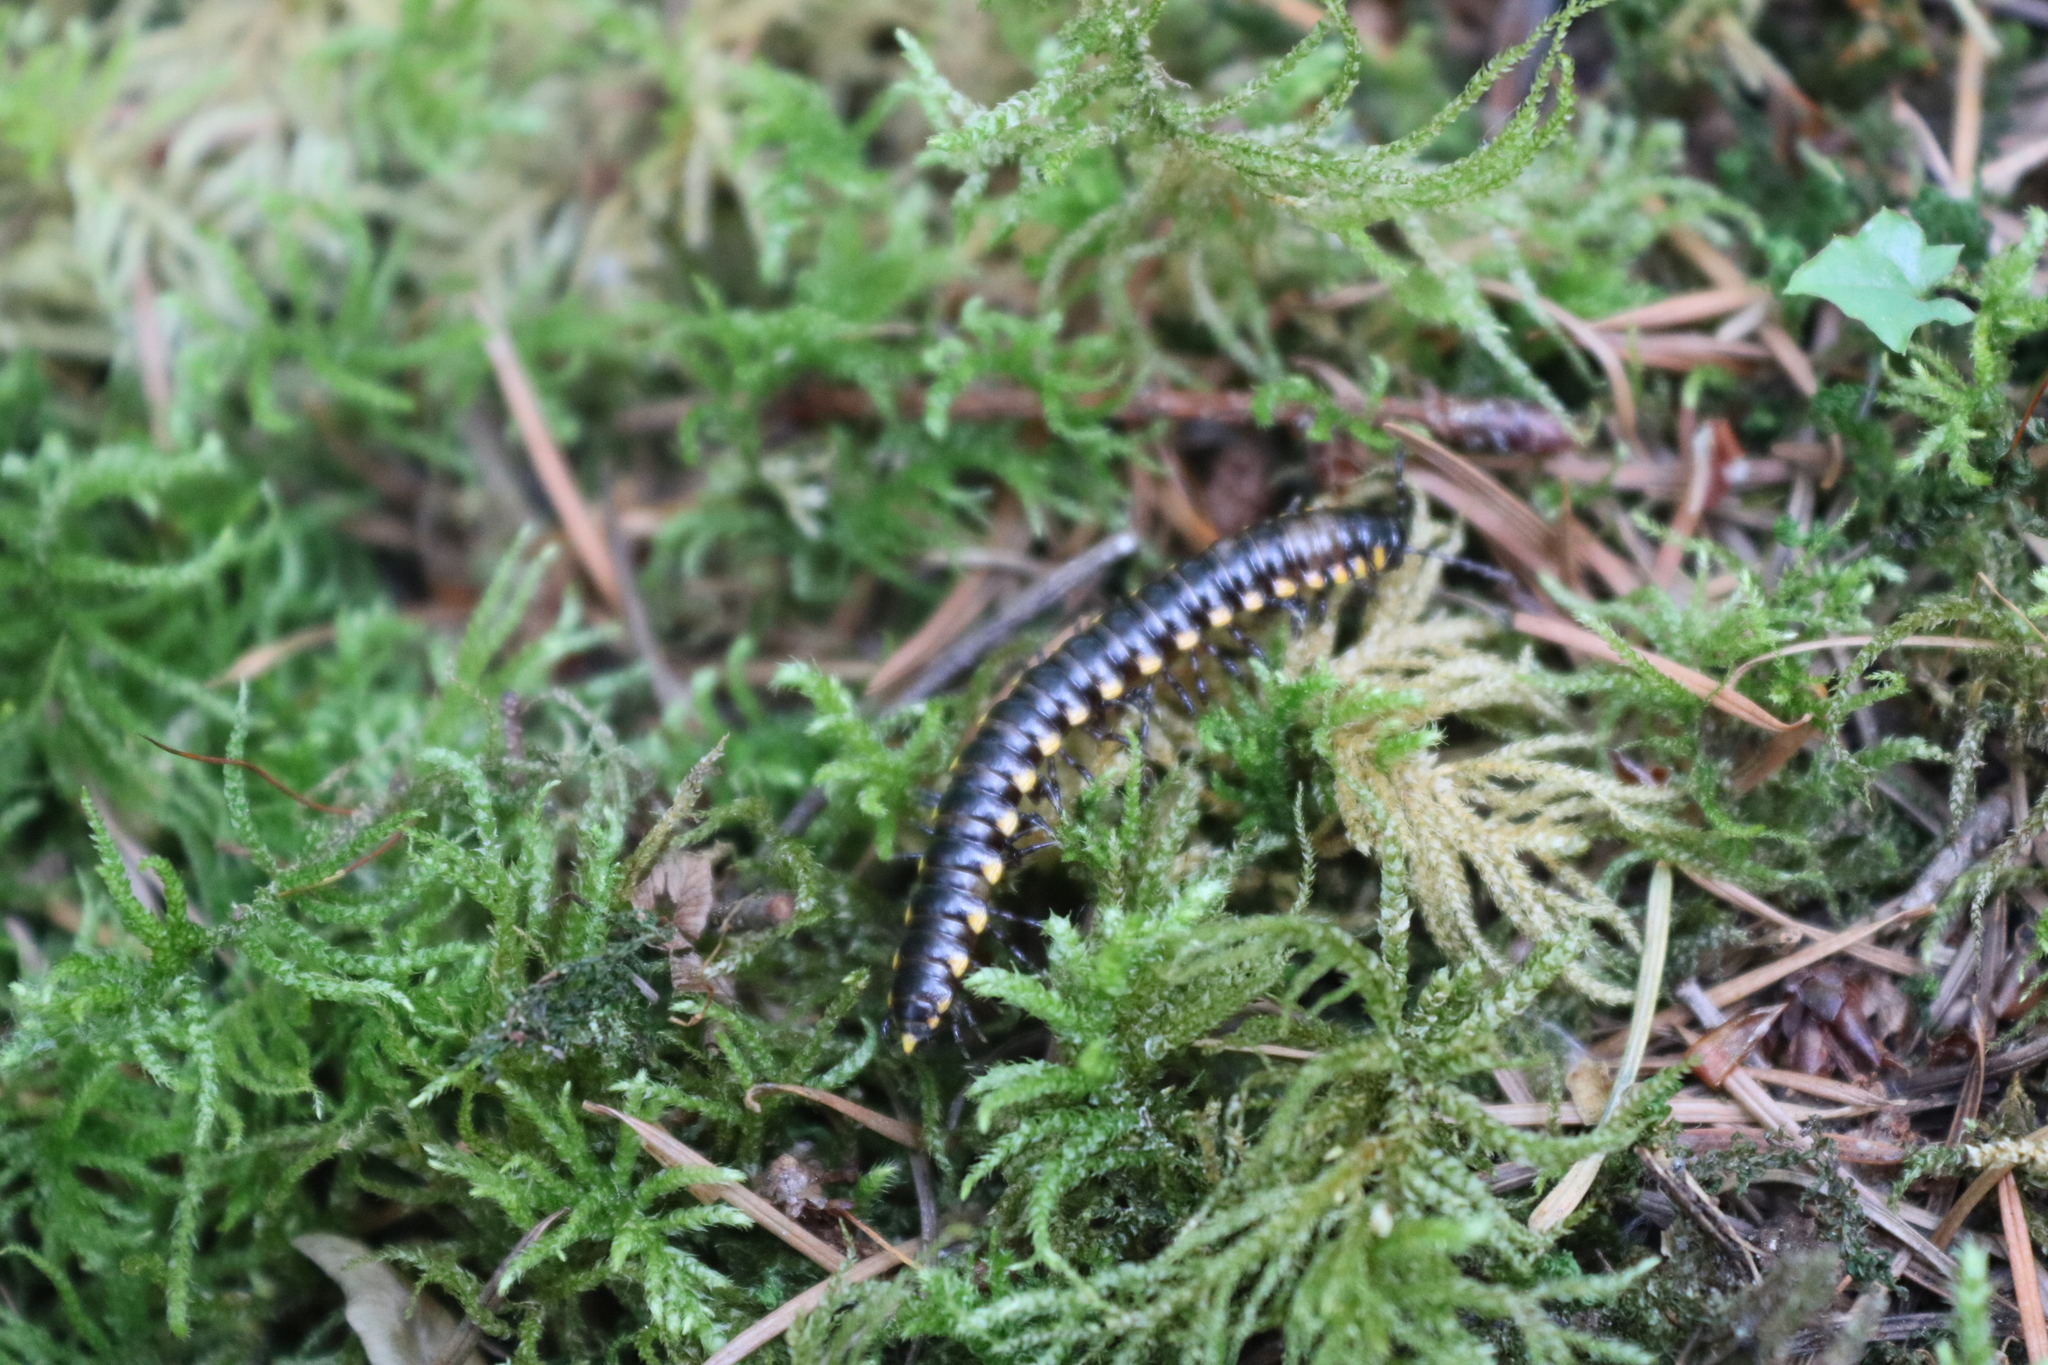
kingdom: Animalia
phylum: Arthropoda
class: Diplopoda
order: Polydesmida
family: Xystodesmidae
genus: Harpaphe
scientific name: Harpaphe haydeniana
